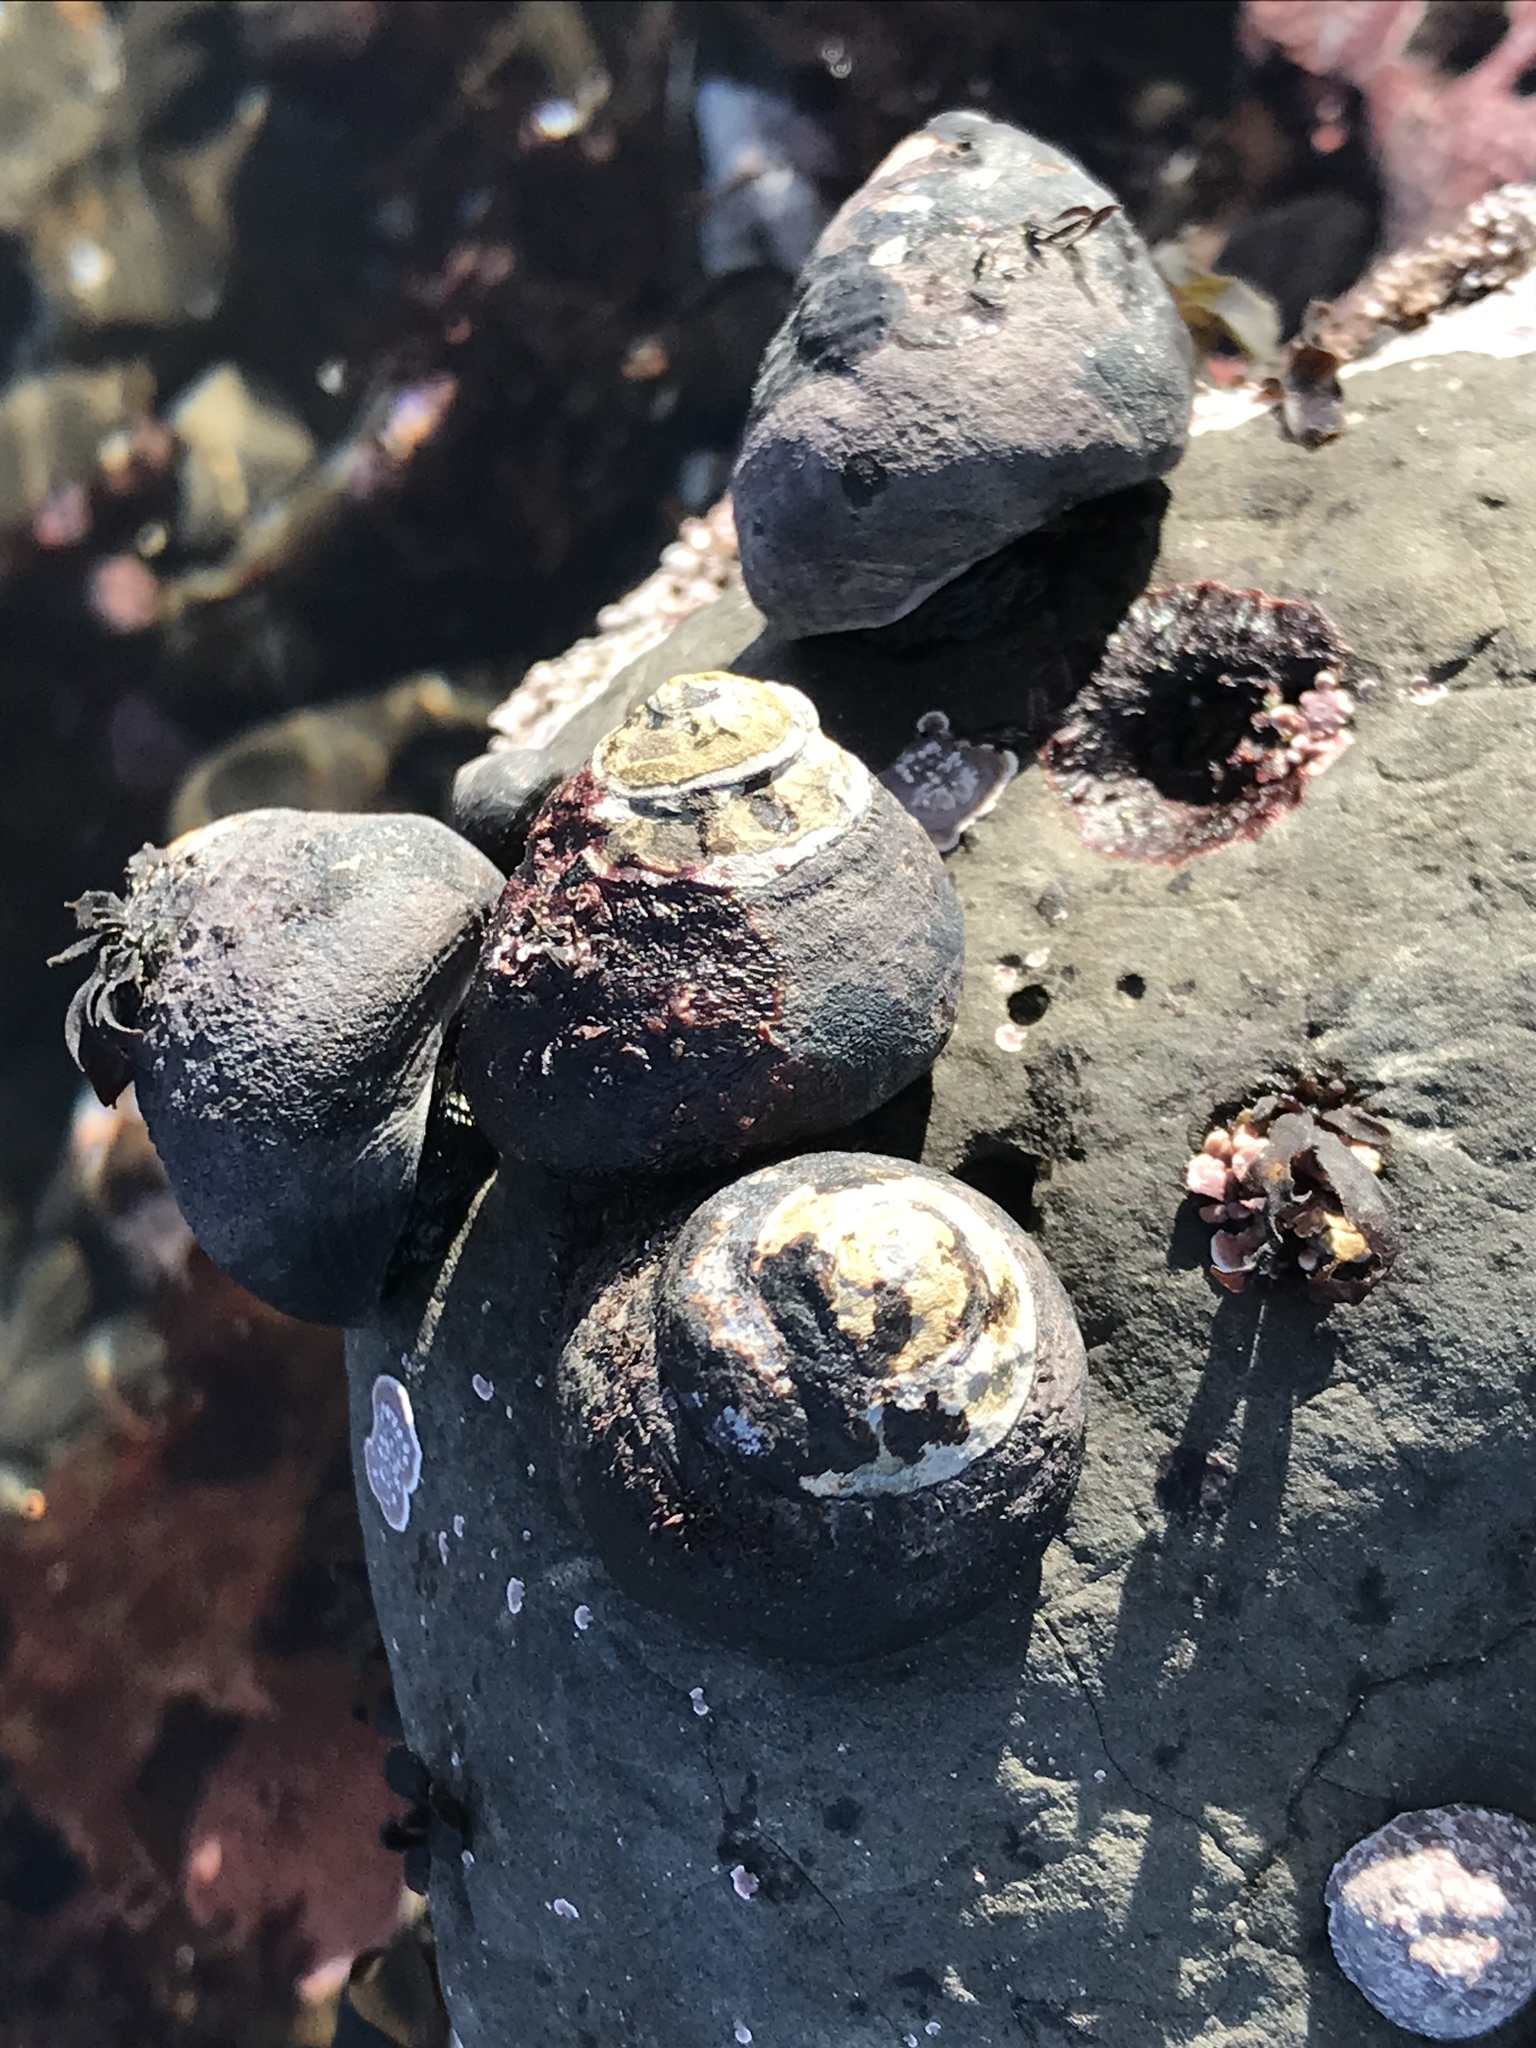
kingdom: Animalia
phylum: Mollusca
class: Gastropoda
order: Trochida
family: Tegulidae
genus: Tegula
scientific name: Tegula funebralis
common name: Black tegula
